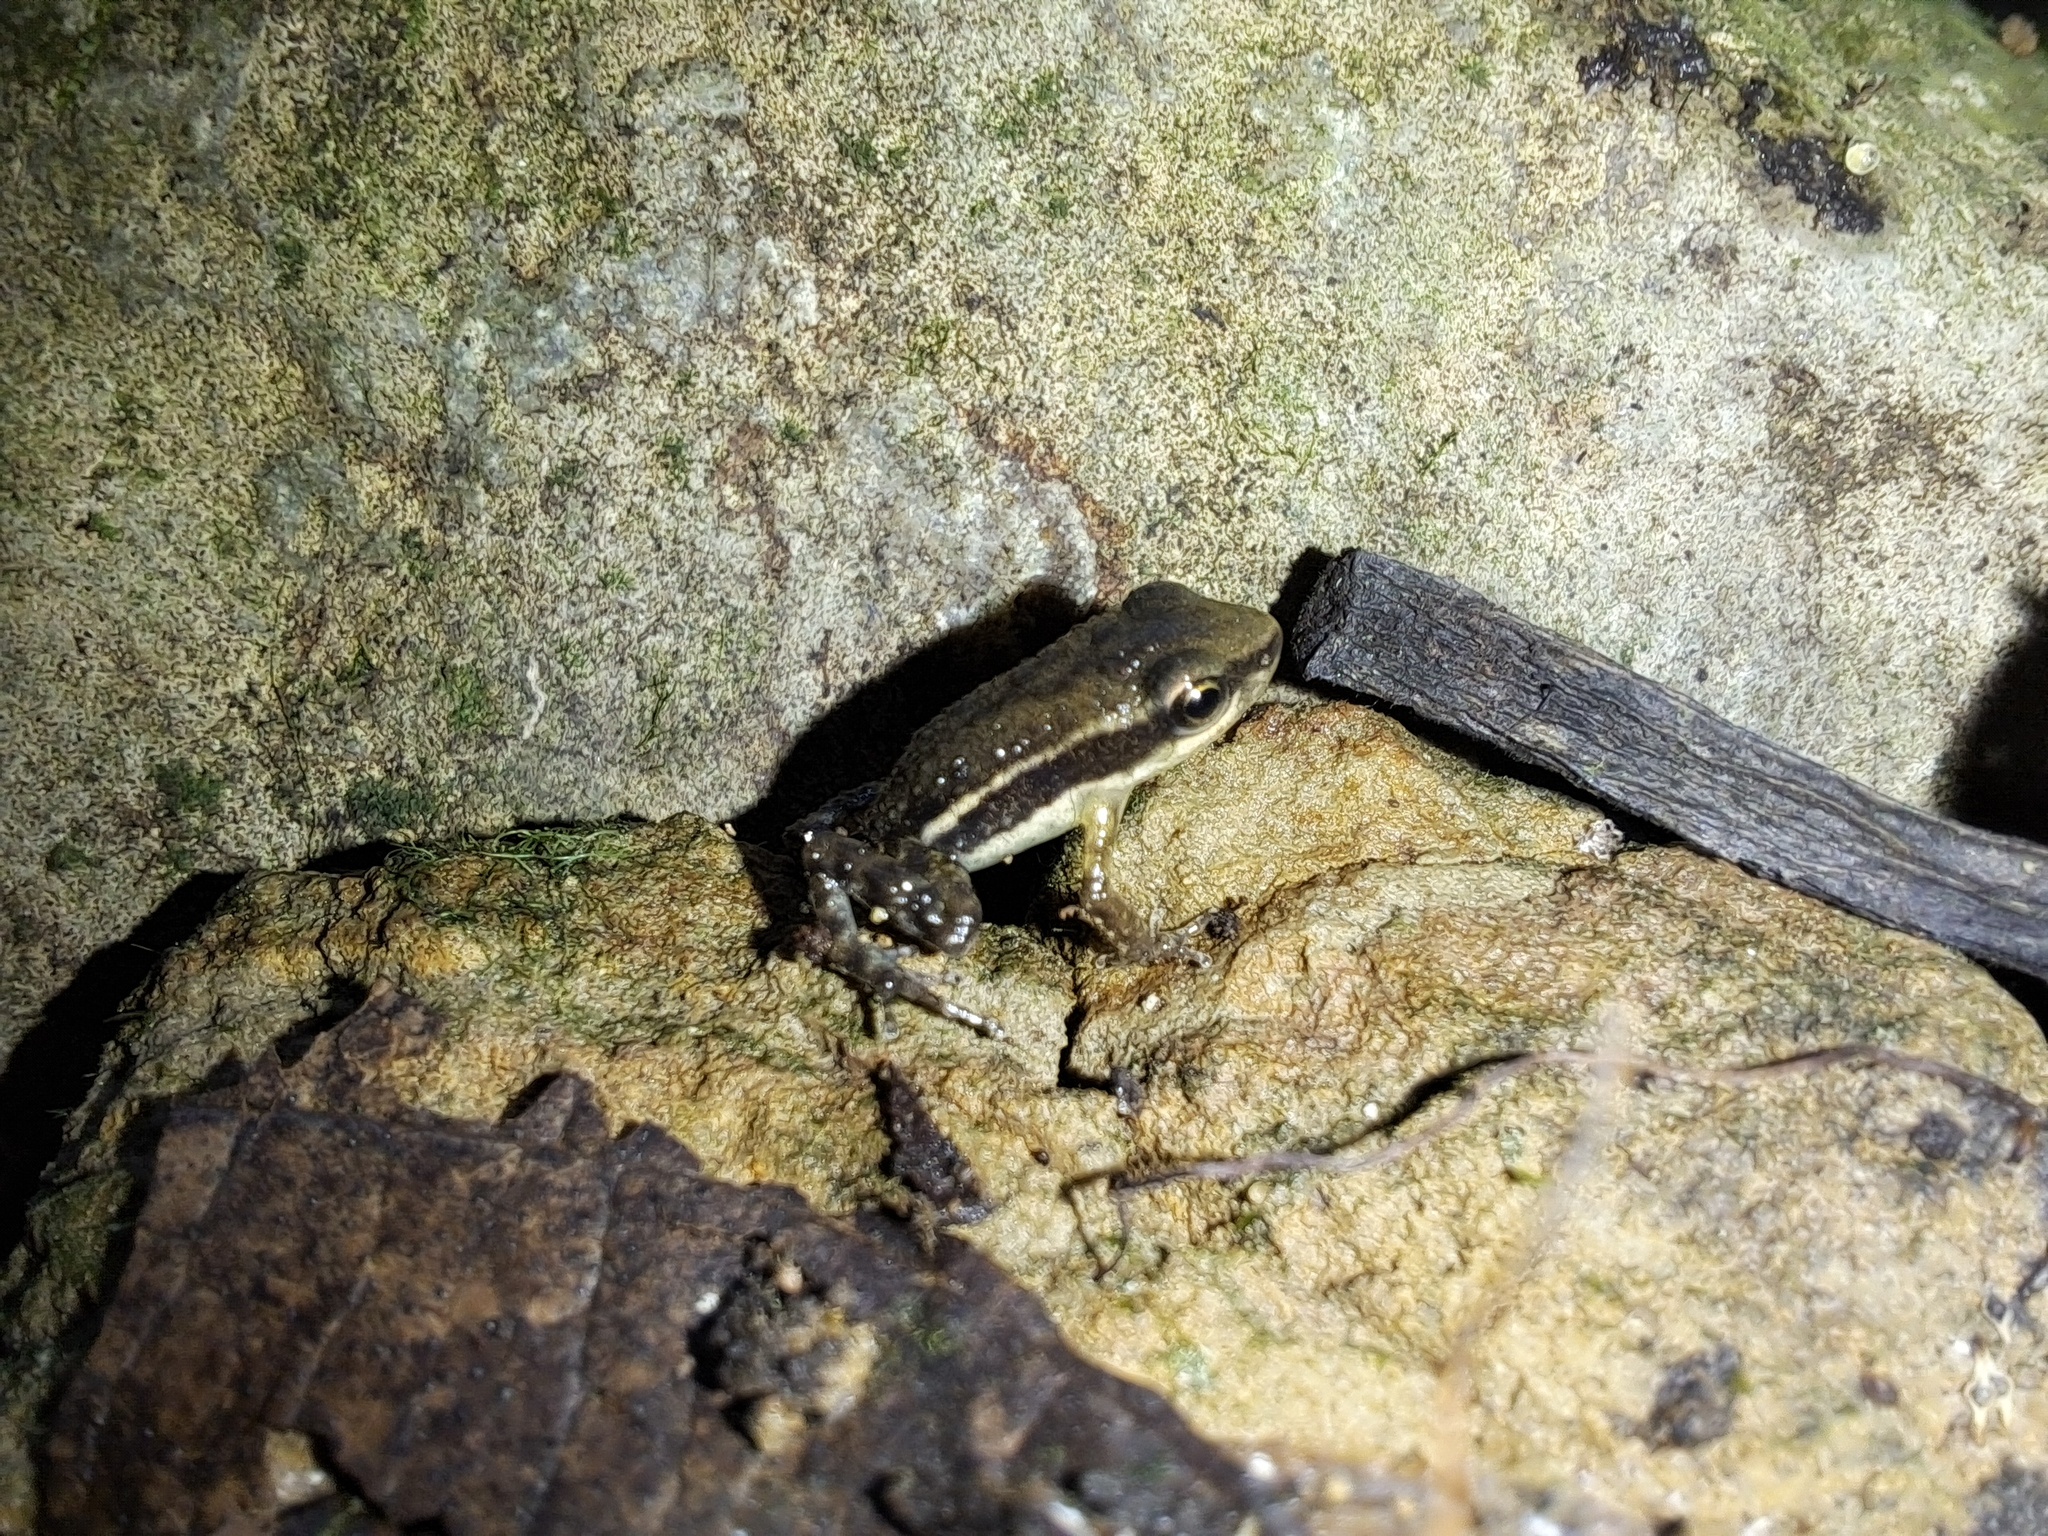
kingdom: Animalia
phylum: Chordata
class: Amphibia
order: Anura
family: Dendrobatidae
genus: Epipedobates
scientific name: Epipedobates machalilla
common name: Machalilla rocket frog
